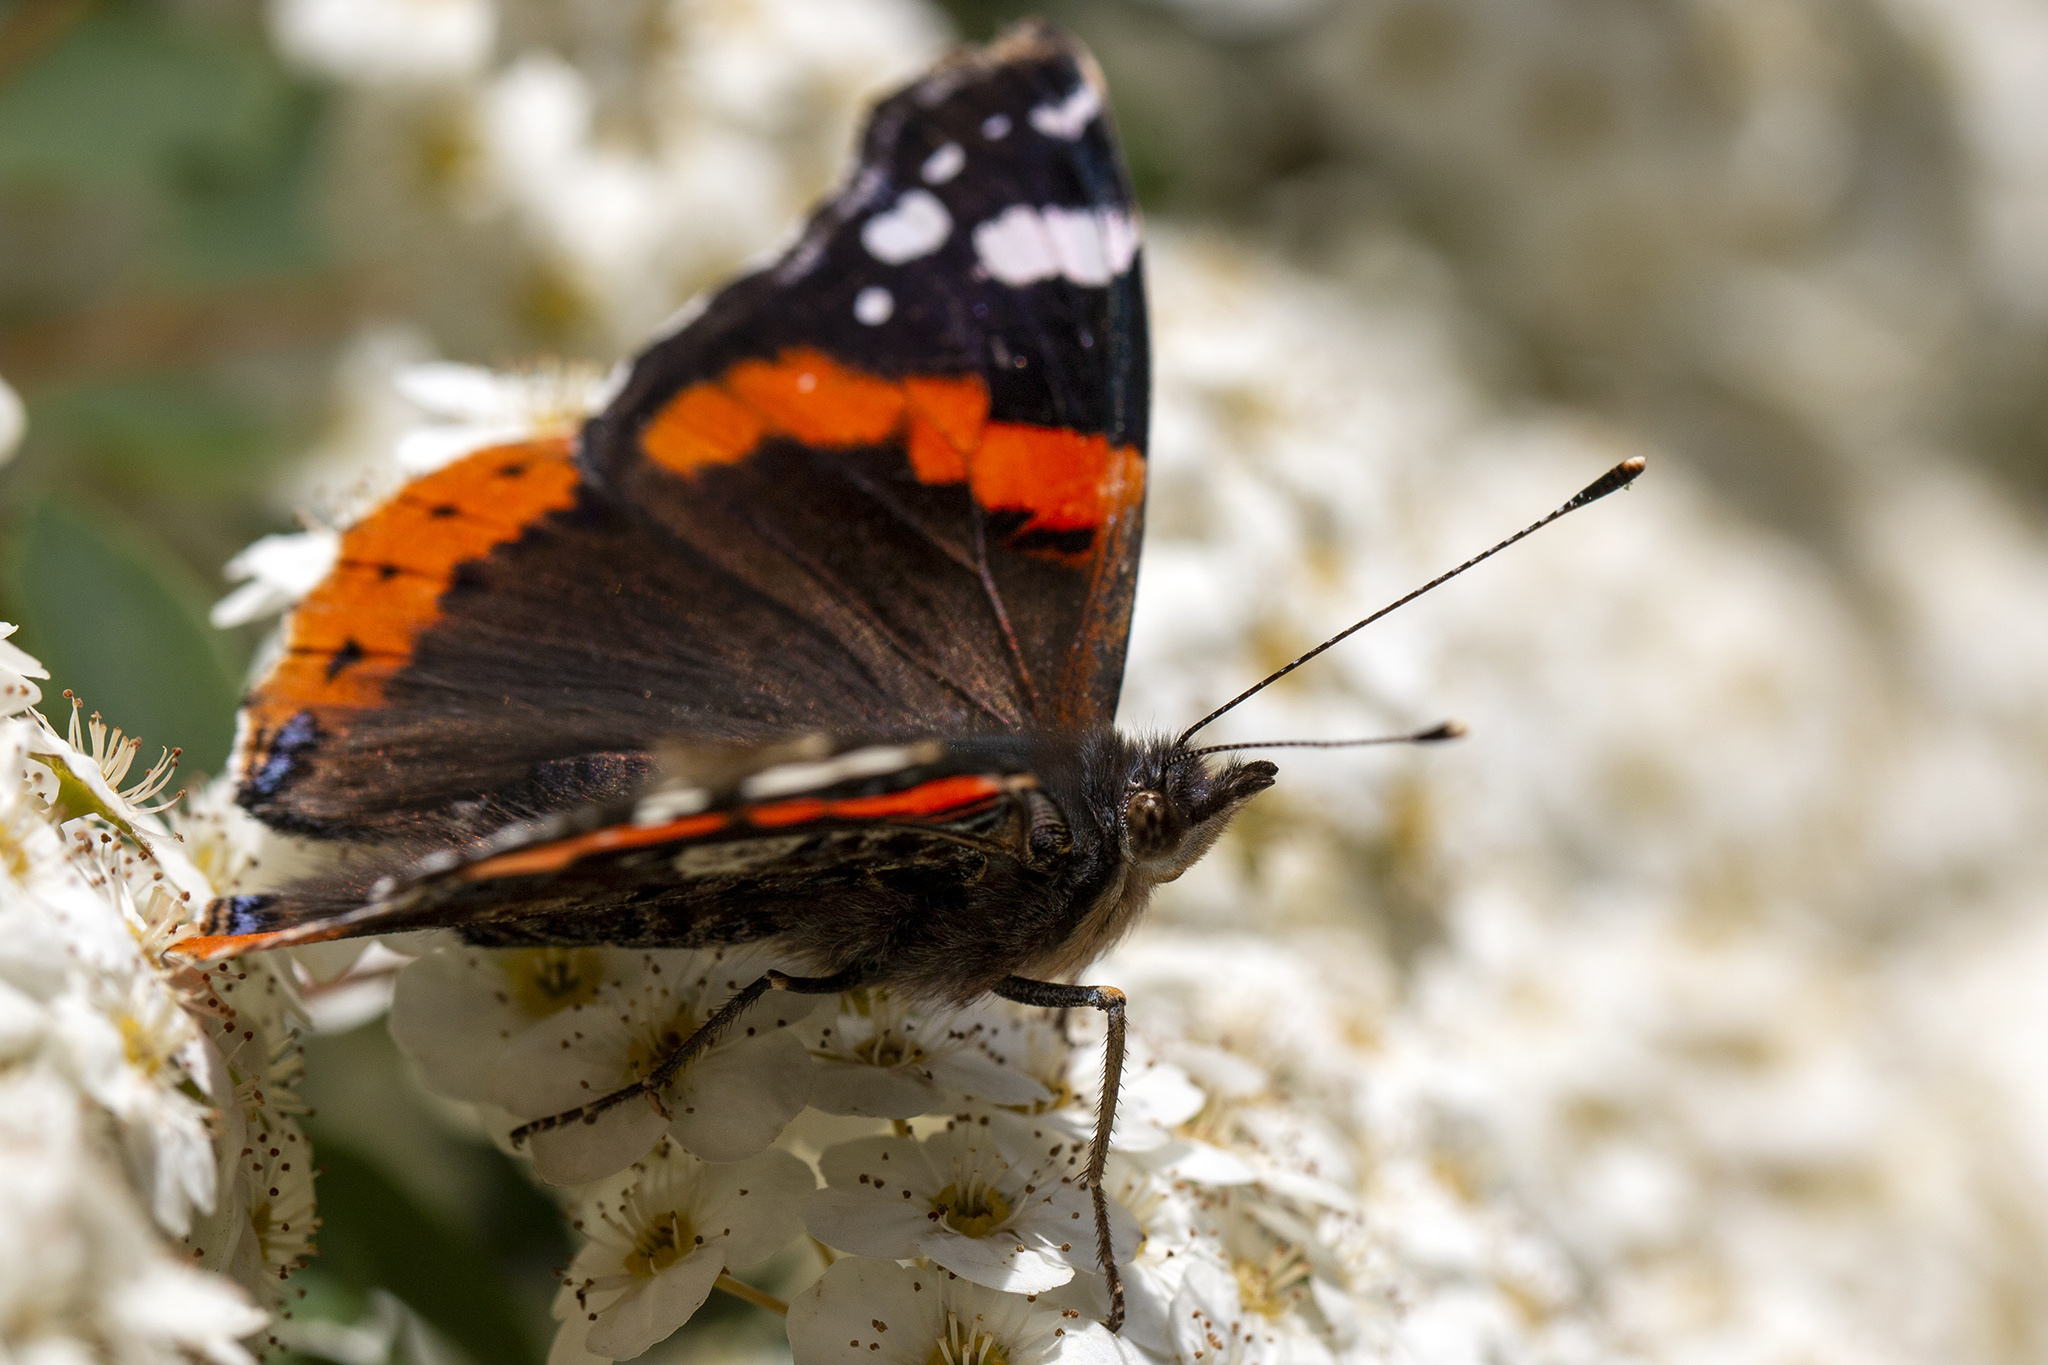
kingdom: Animalia
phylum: Arthropoda
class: Insecta
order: Lepidoptera
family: Nymphalidae
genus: Vanessa
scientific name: Vanessa atalanta
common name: Red admiral
